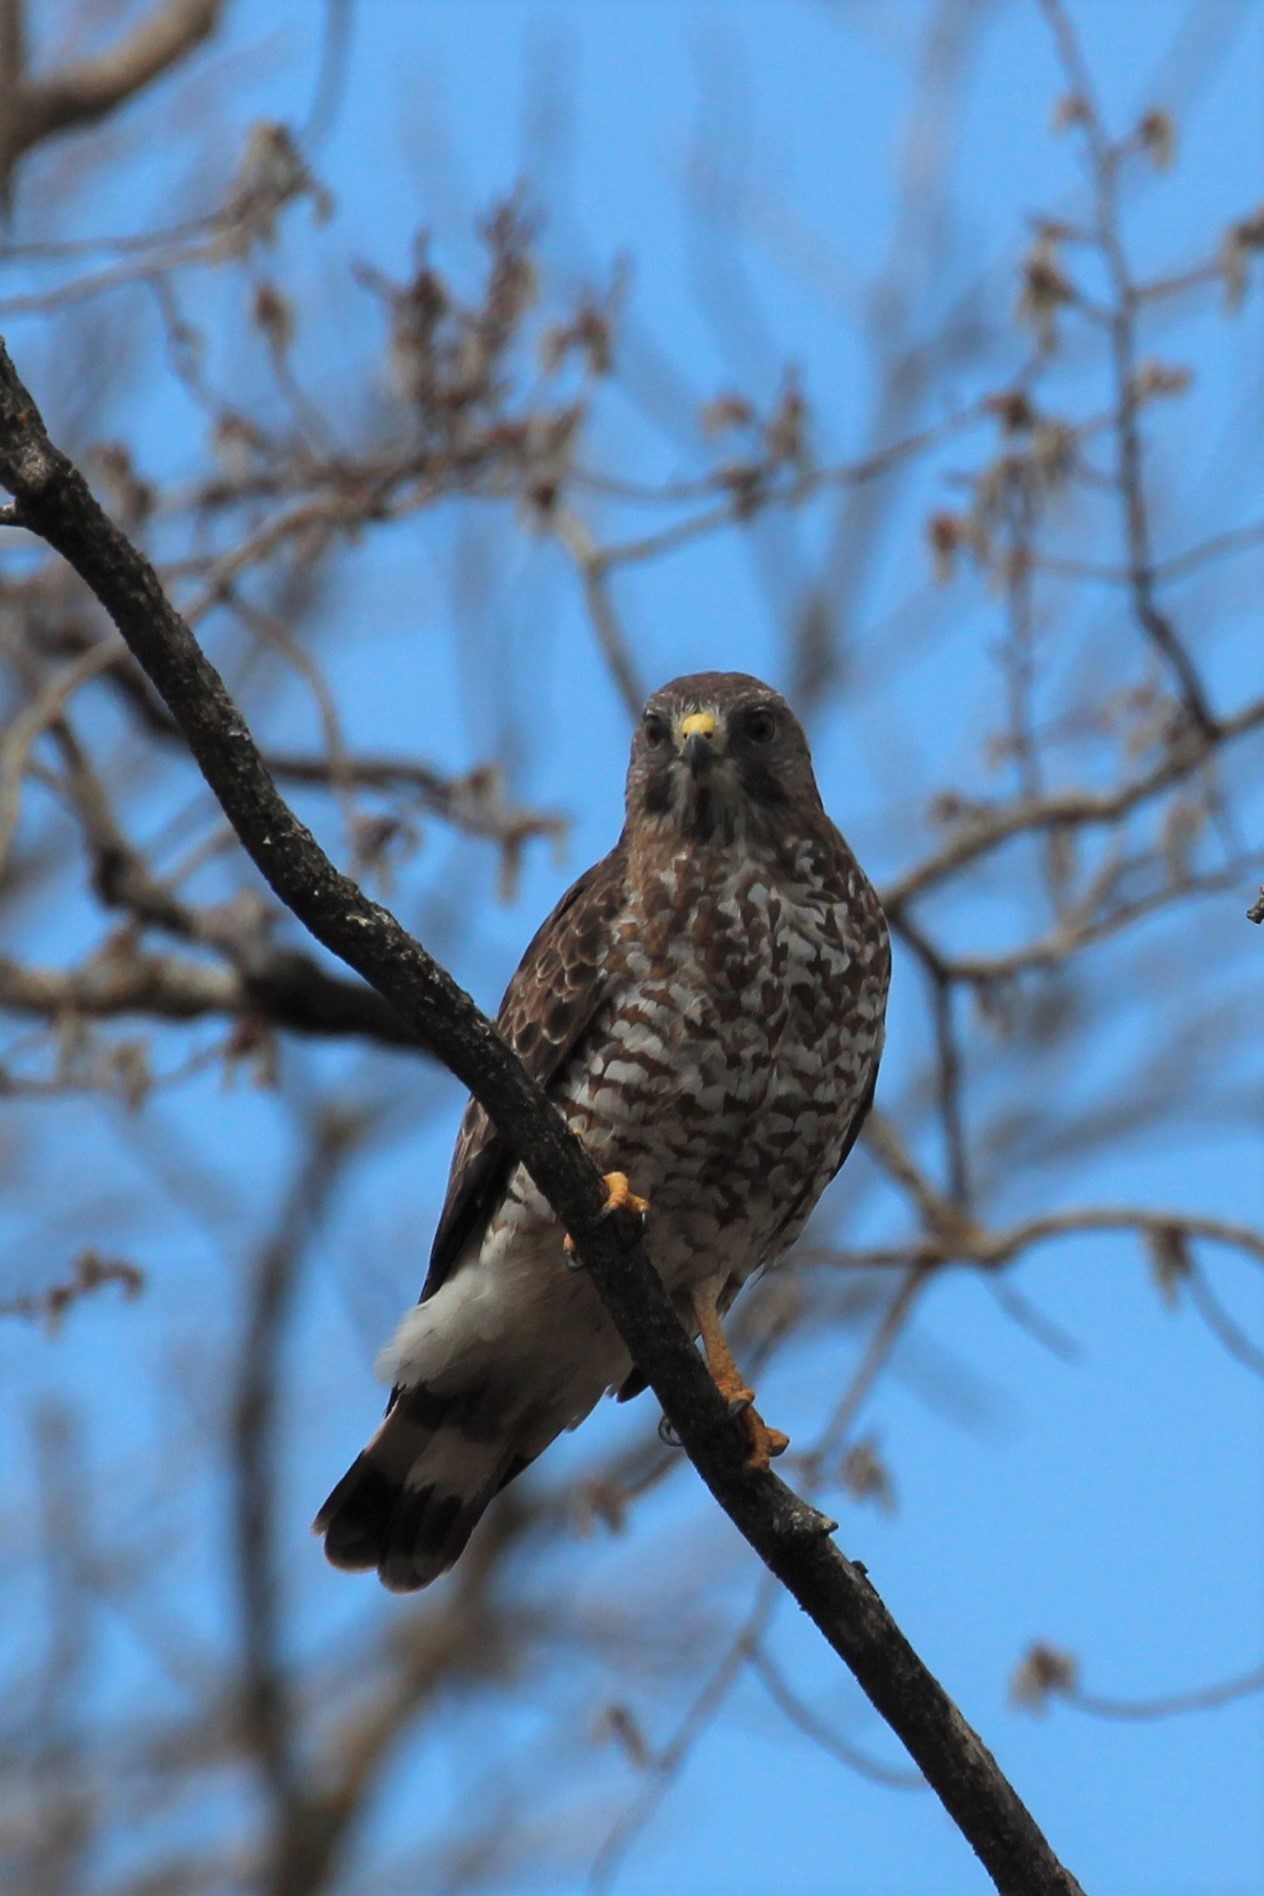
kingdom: Animalia
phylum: Chordata
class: Aves
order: Accipitriformes
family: Accipitridae
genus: Buteo
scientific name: Buteo platypterus
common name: Broad-winged hawk
